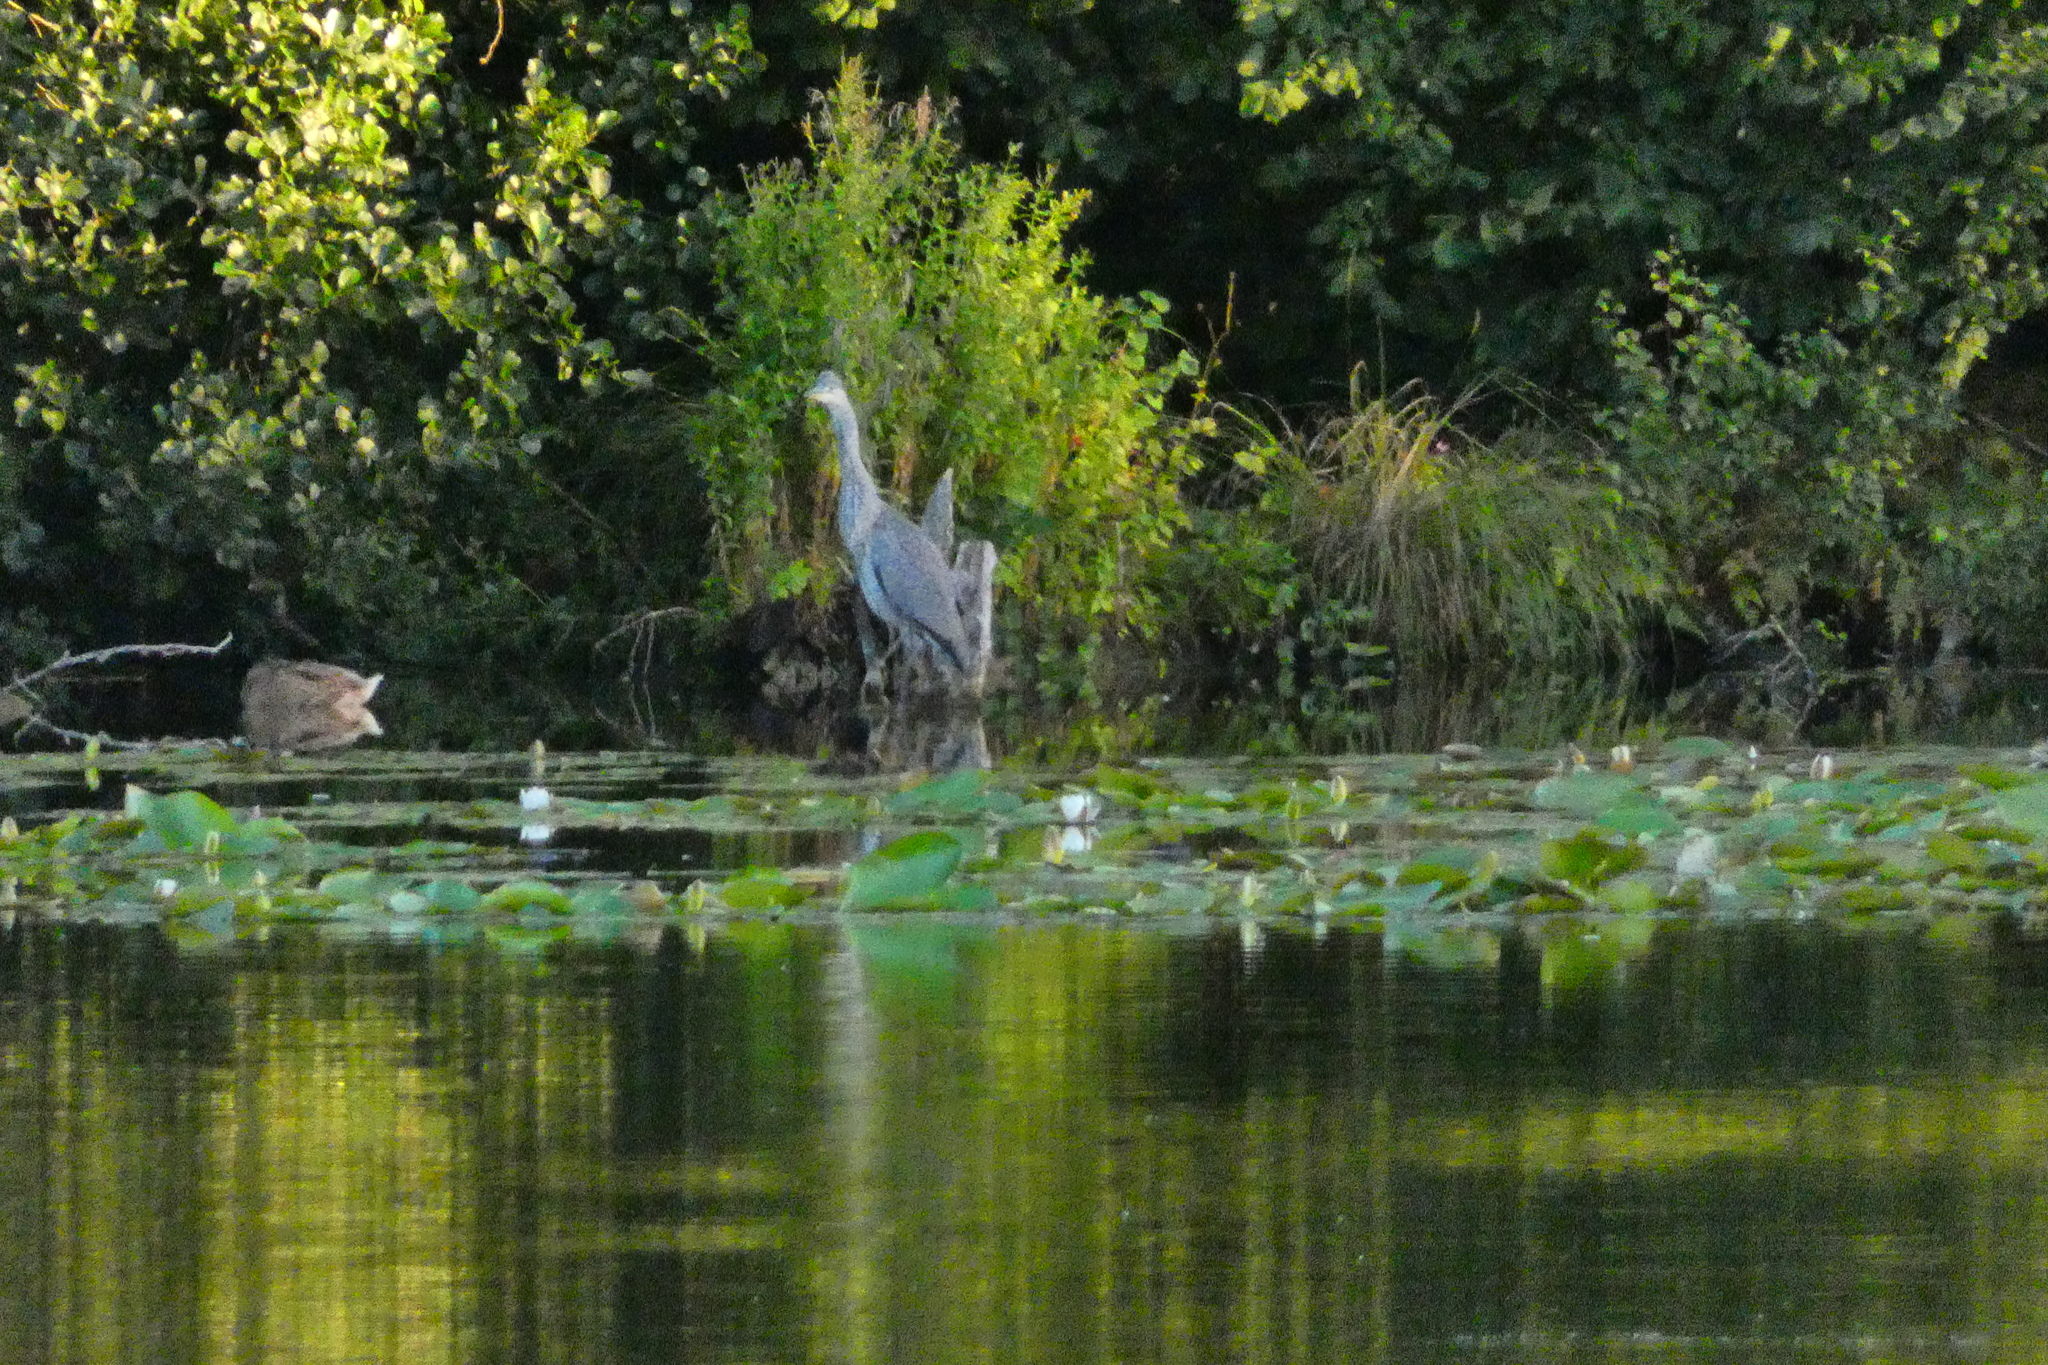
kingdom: Animalia
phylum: Chordata
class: Aves
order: Pelecaniformes
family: Ardeidae
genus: Ardea
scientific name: Ardea cinerea
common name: Grey heron
